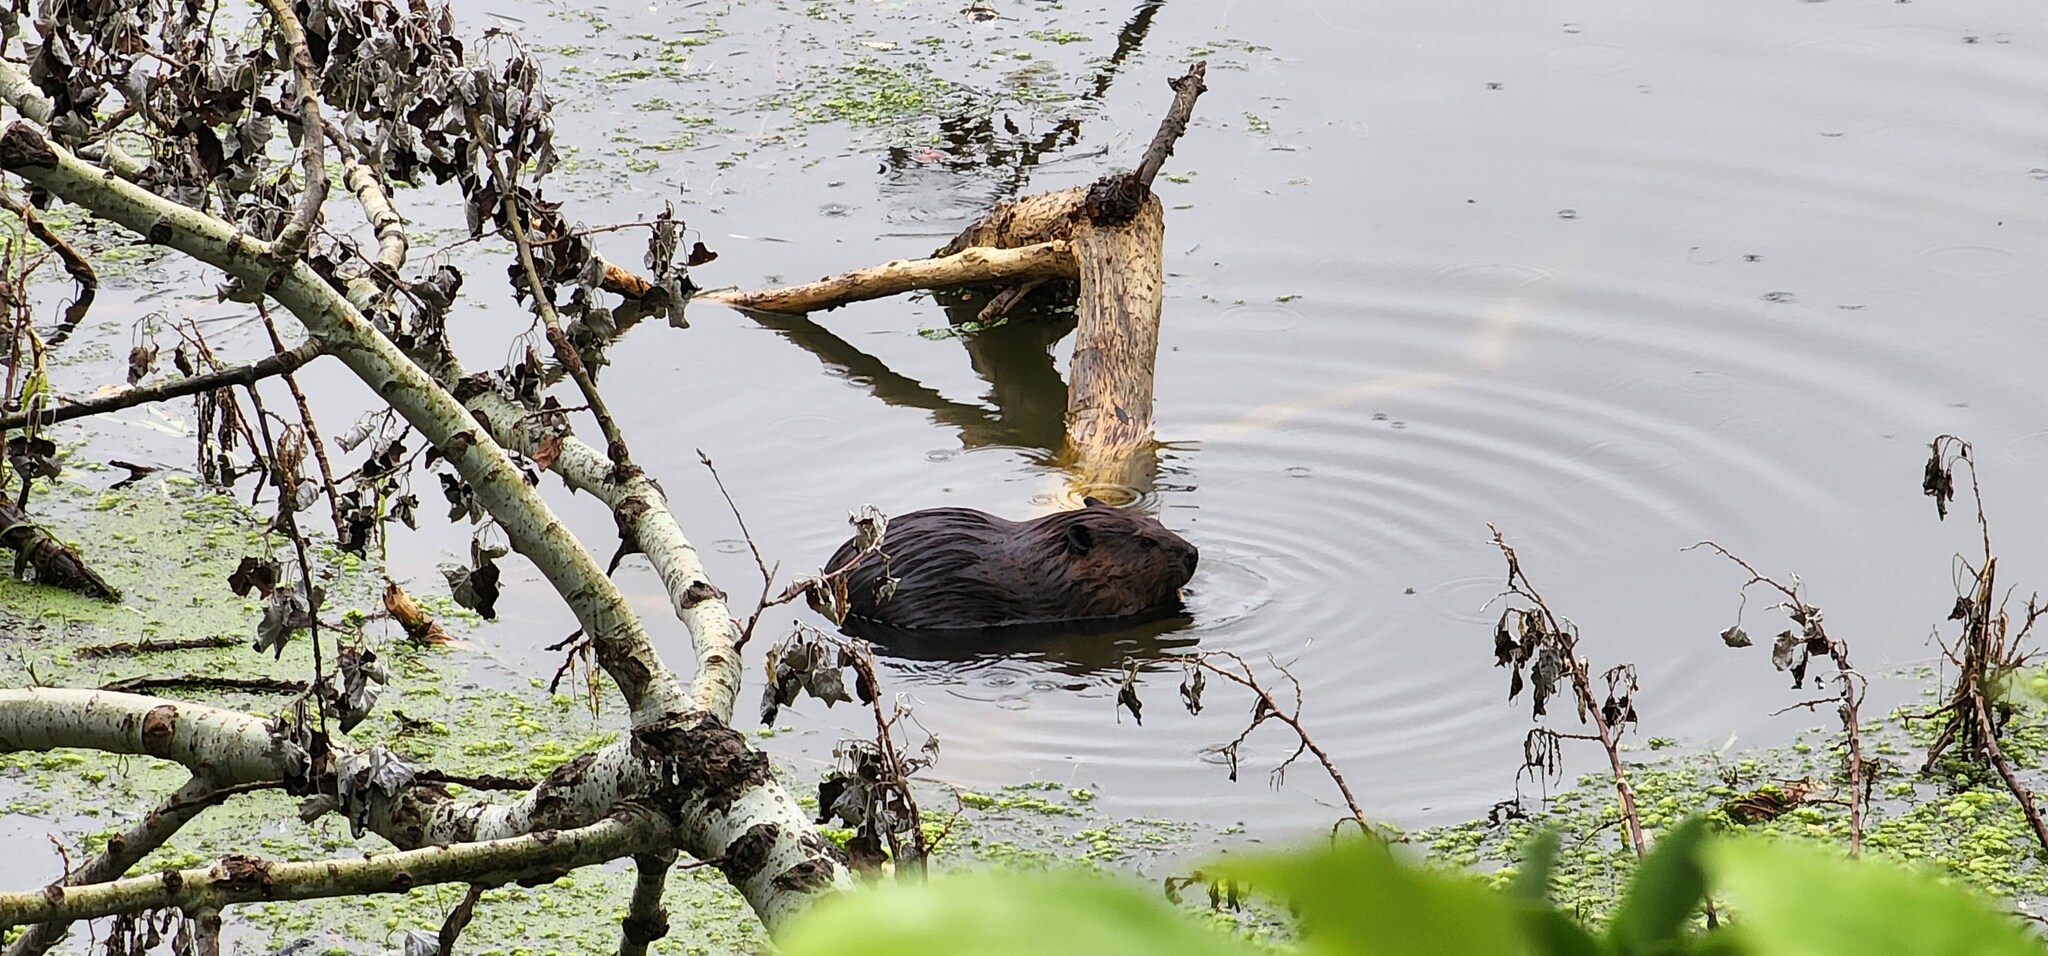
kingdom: Animalia
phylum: Chordata
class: Mammalia
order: Rodentia
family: Castoridae
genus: Castor
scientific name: Castor canadensis
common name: American beaver
